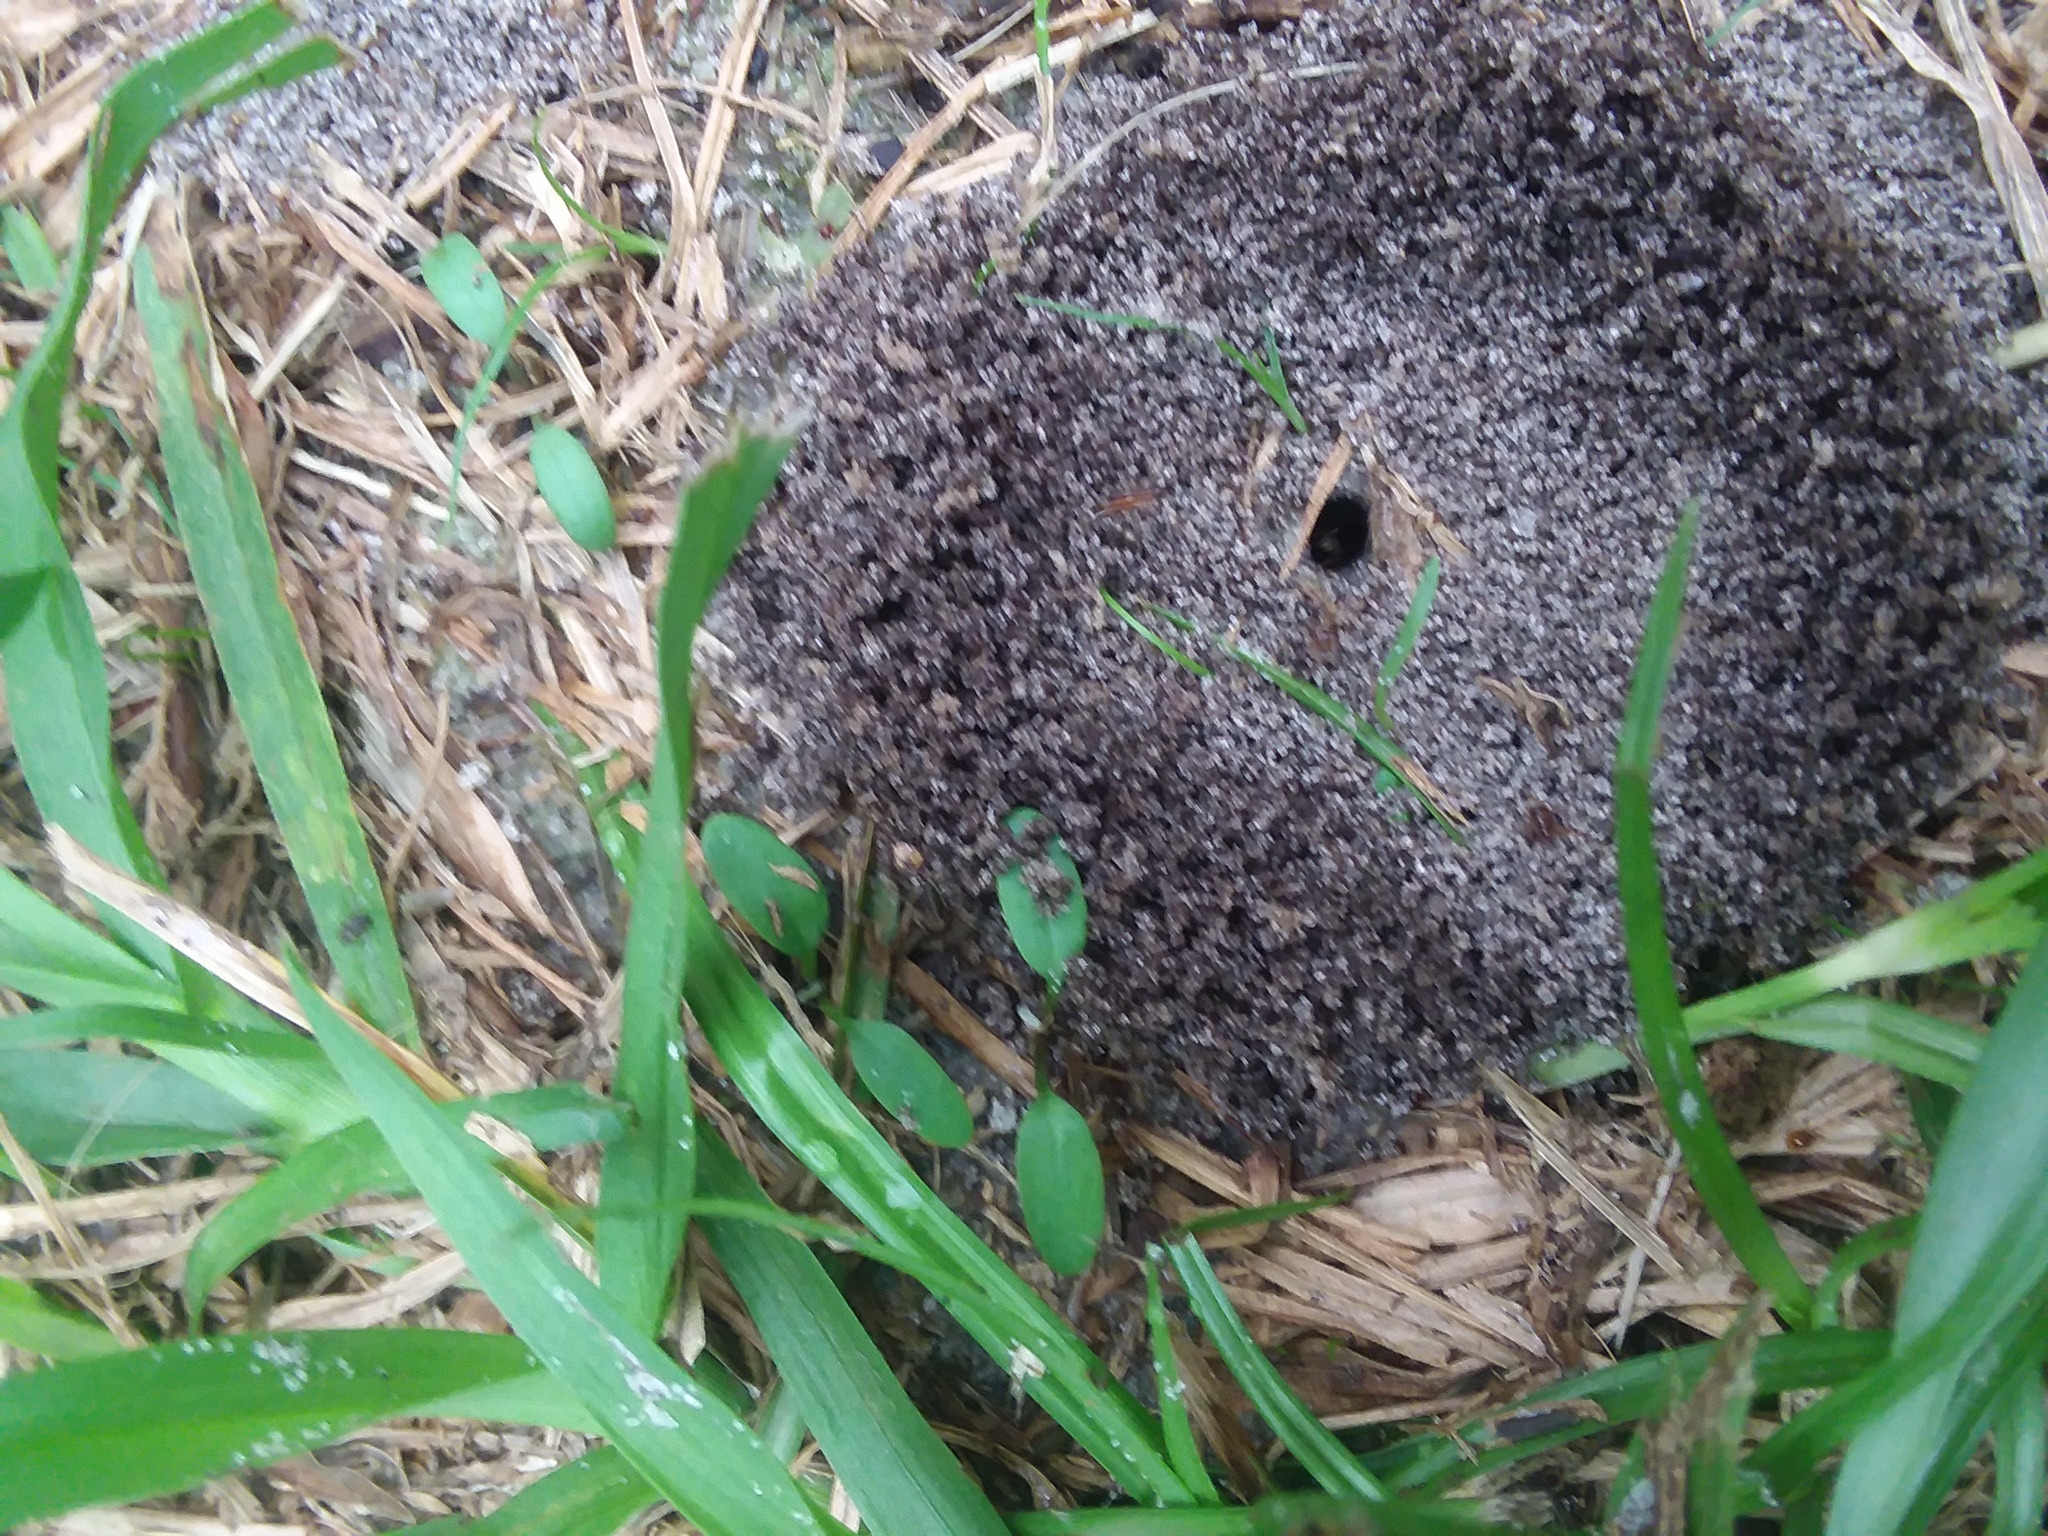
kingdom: Animalia
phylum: Arthropoda
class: Insecta
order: Hymenoptera
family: Formicidae
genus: Dorymyrmex
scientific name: Dorymyrmex bureni
